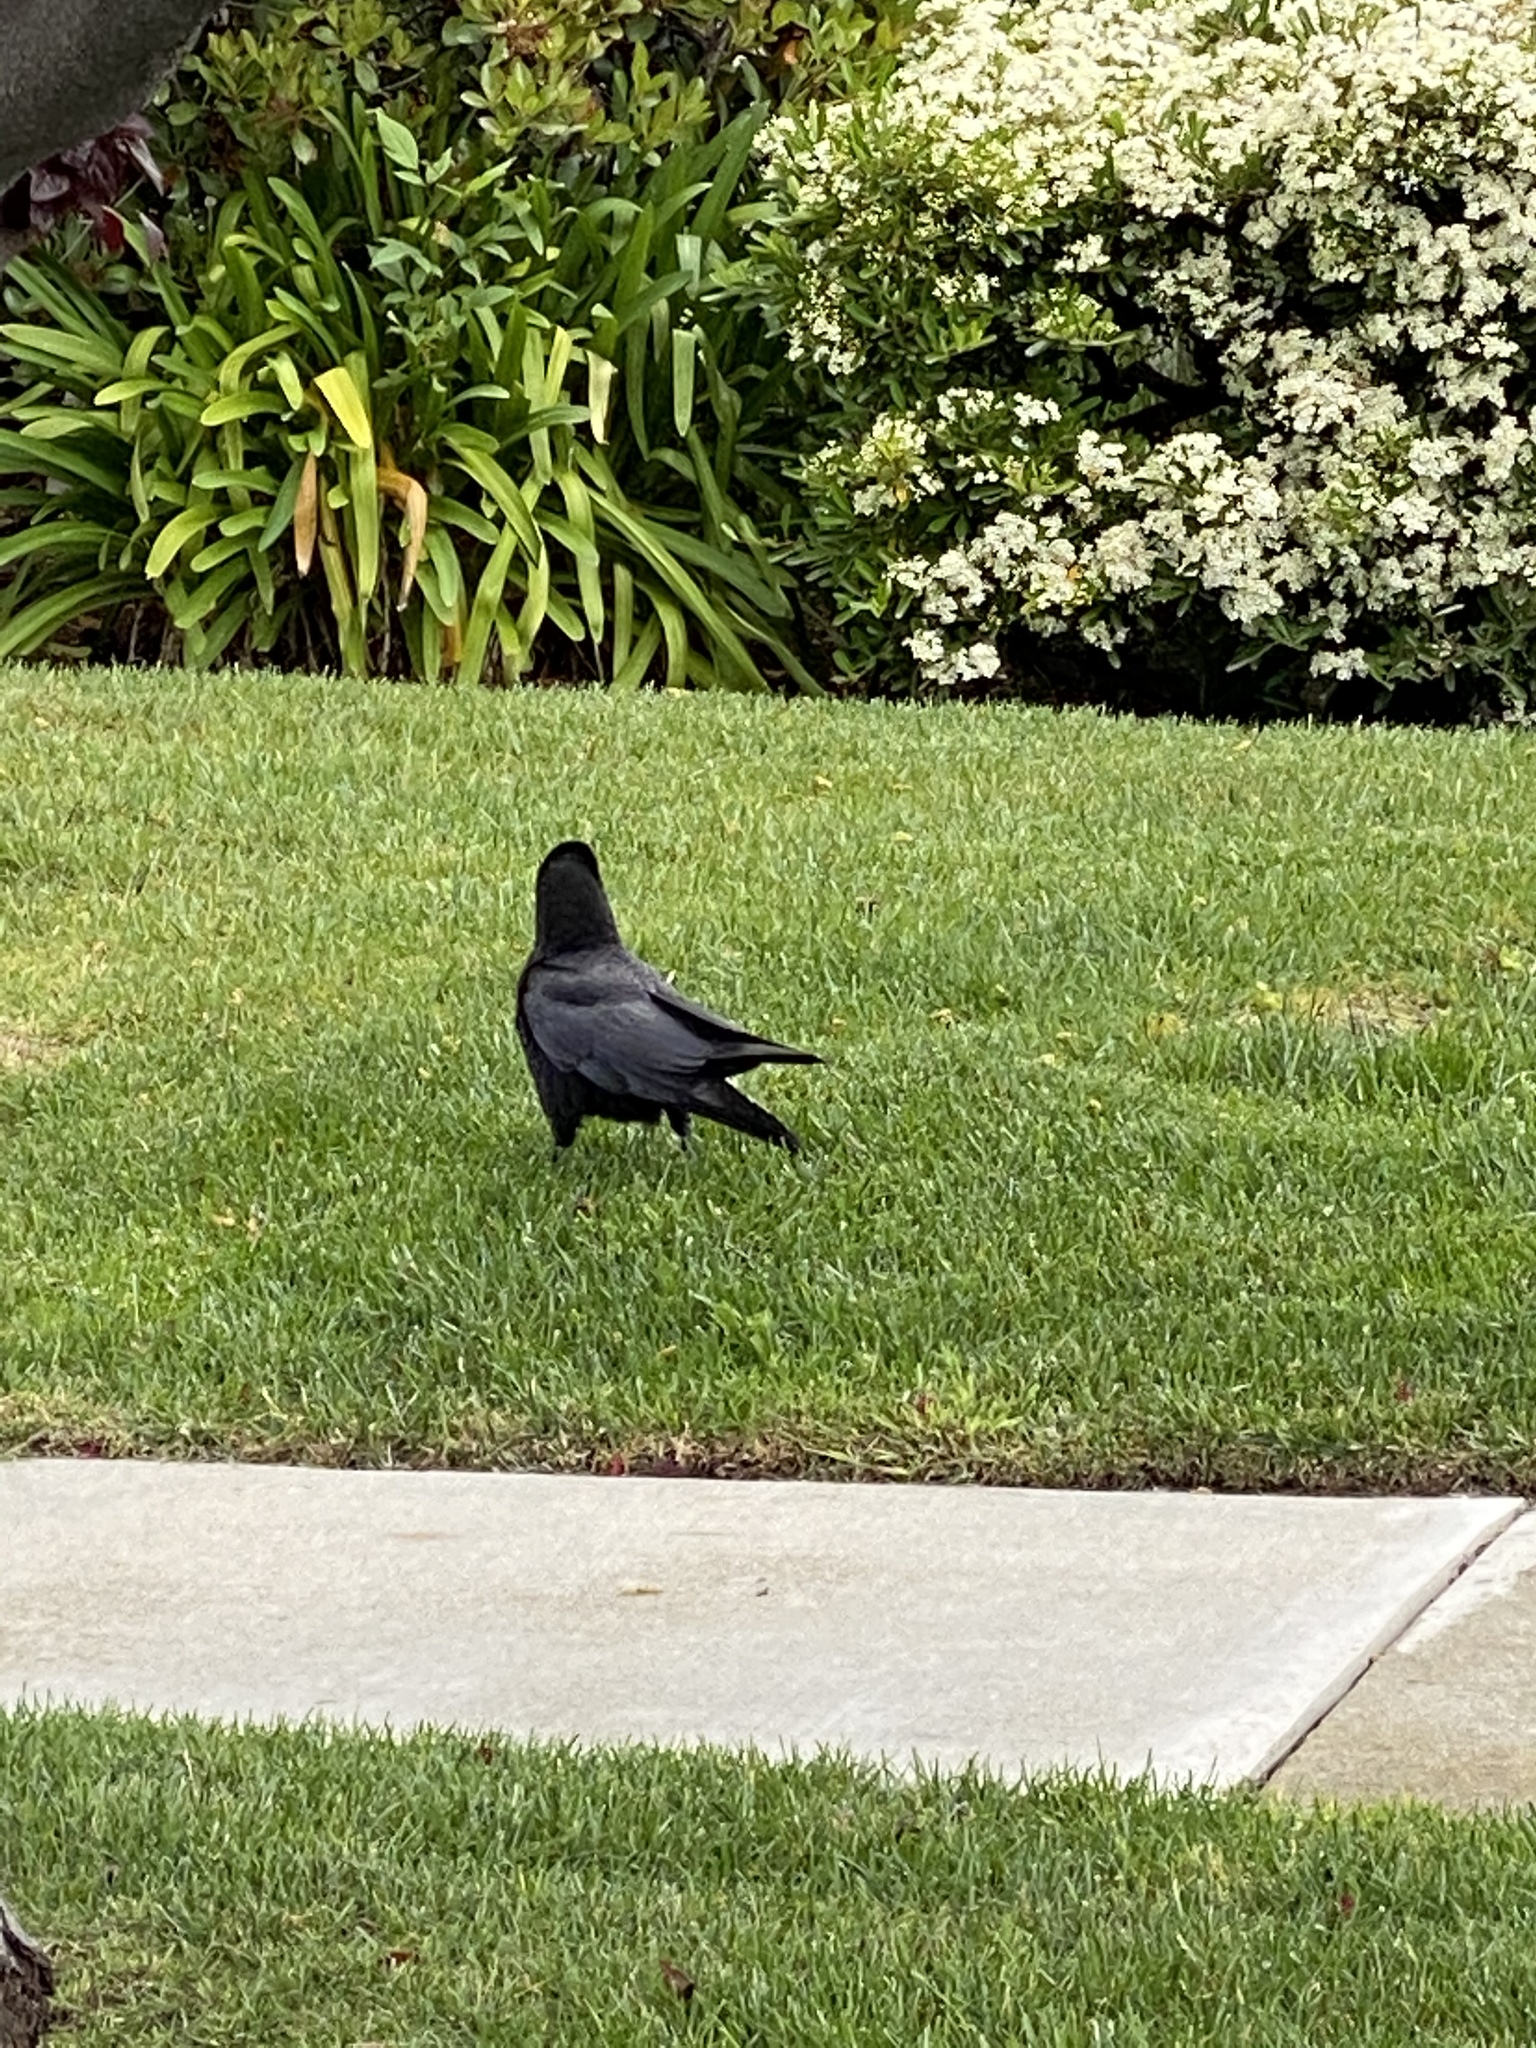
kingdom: Animalia
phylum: Chordata
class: Aves
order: Passeriformes
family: Corvidae
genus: Corvus
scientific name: Corvus brachyrhynchos
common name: American crow
